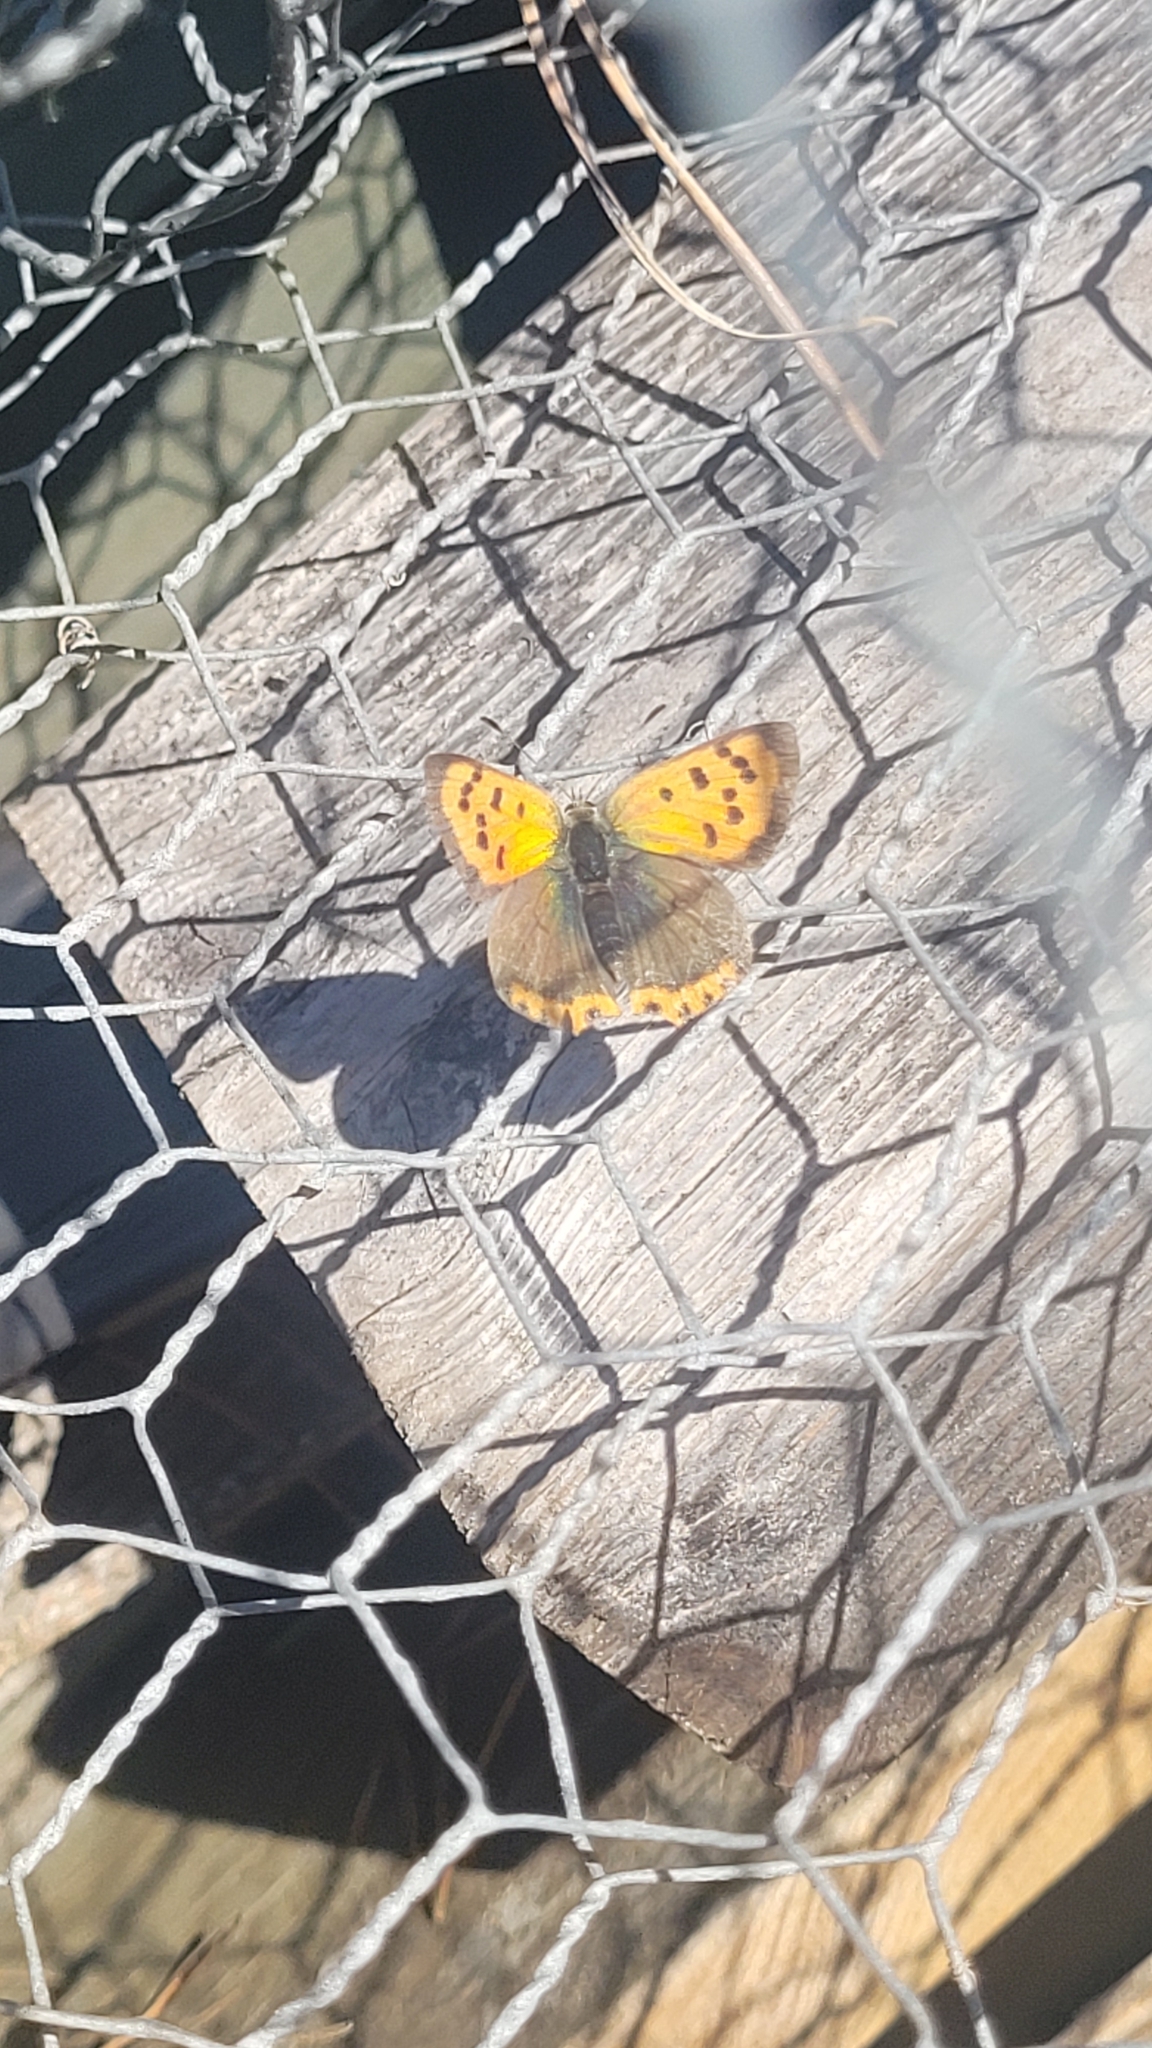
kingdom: Animalia
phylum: Arthropoda
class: Insecta
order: Lepidoptera
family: Lycaenidae
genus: Lycaena
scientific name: Lycaena phlaeas
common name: Small copper
